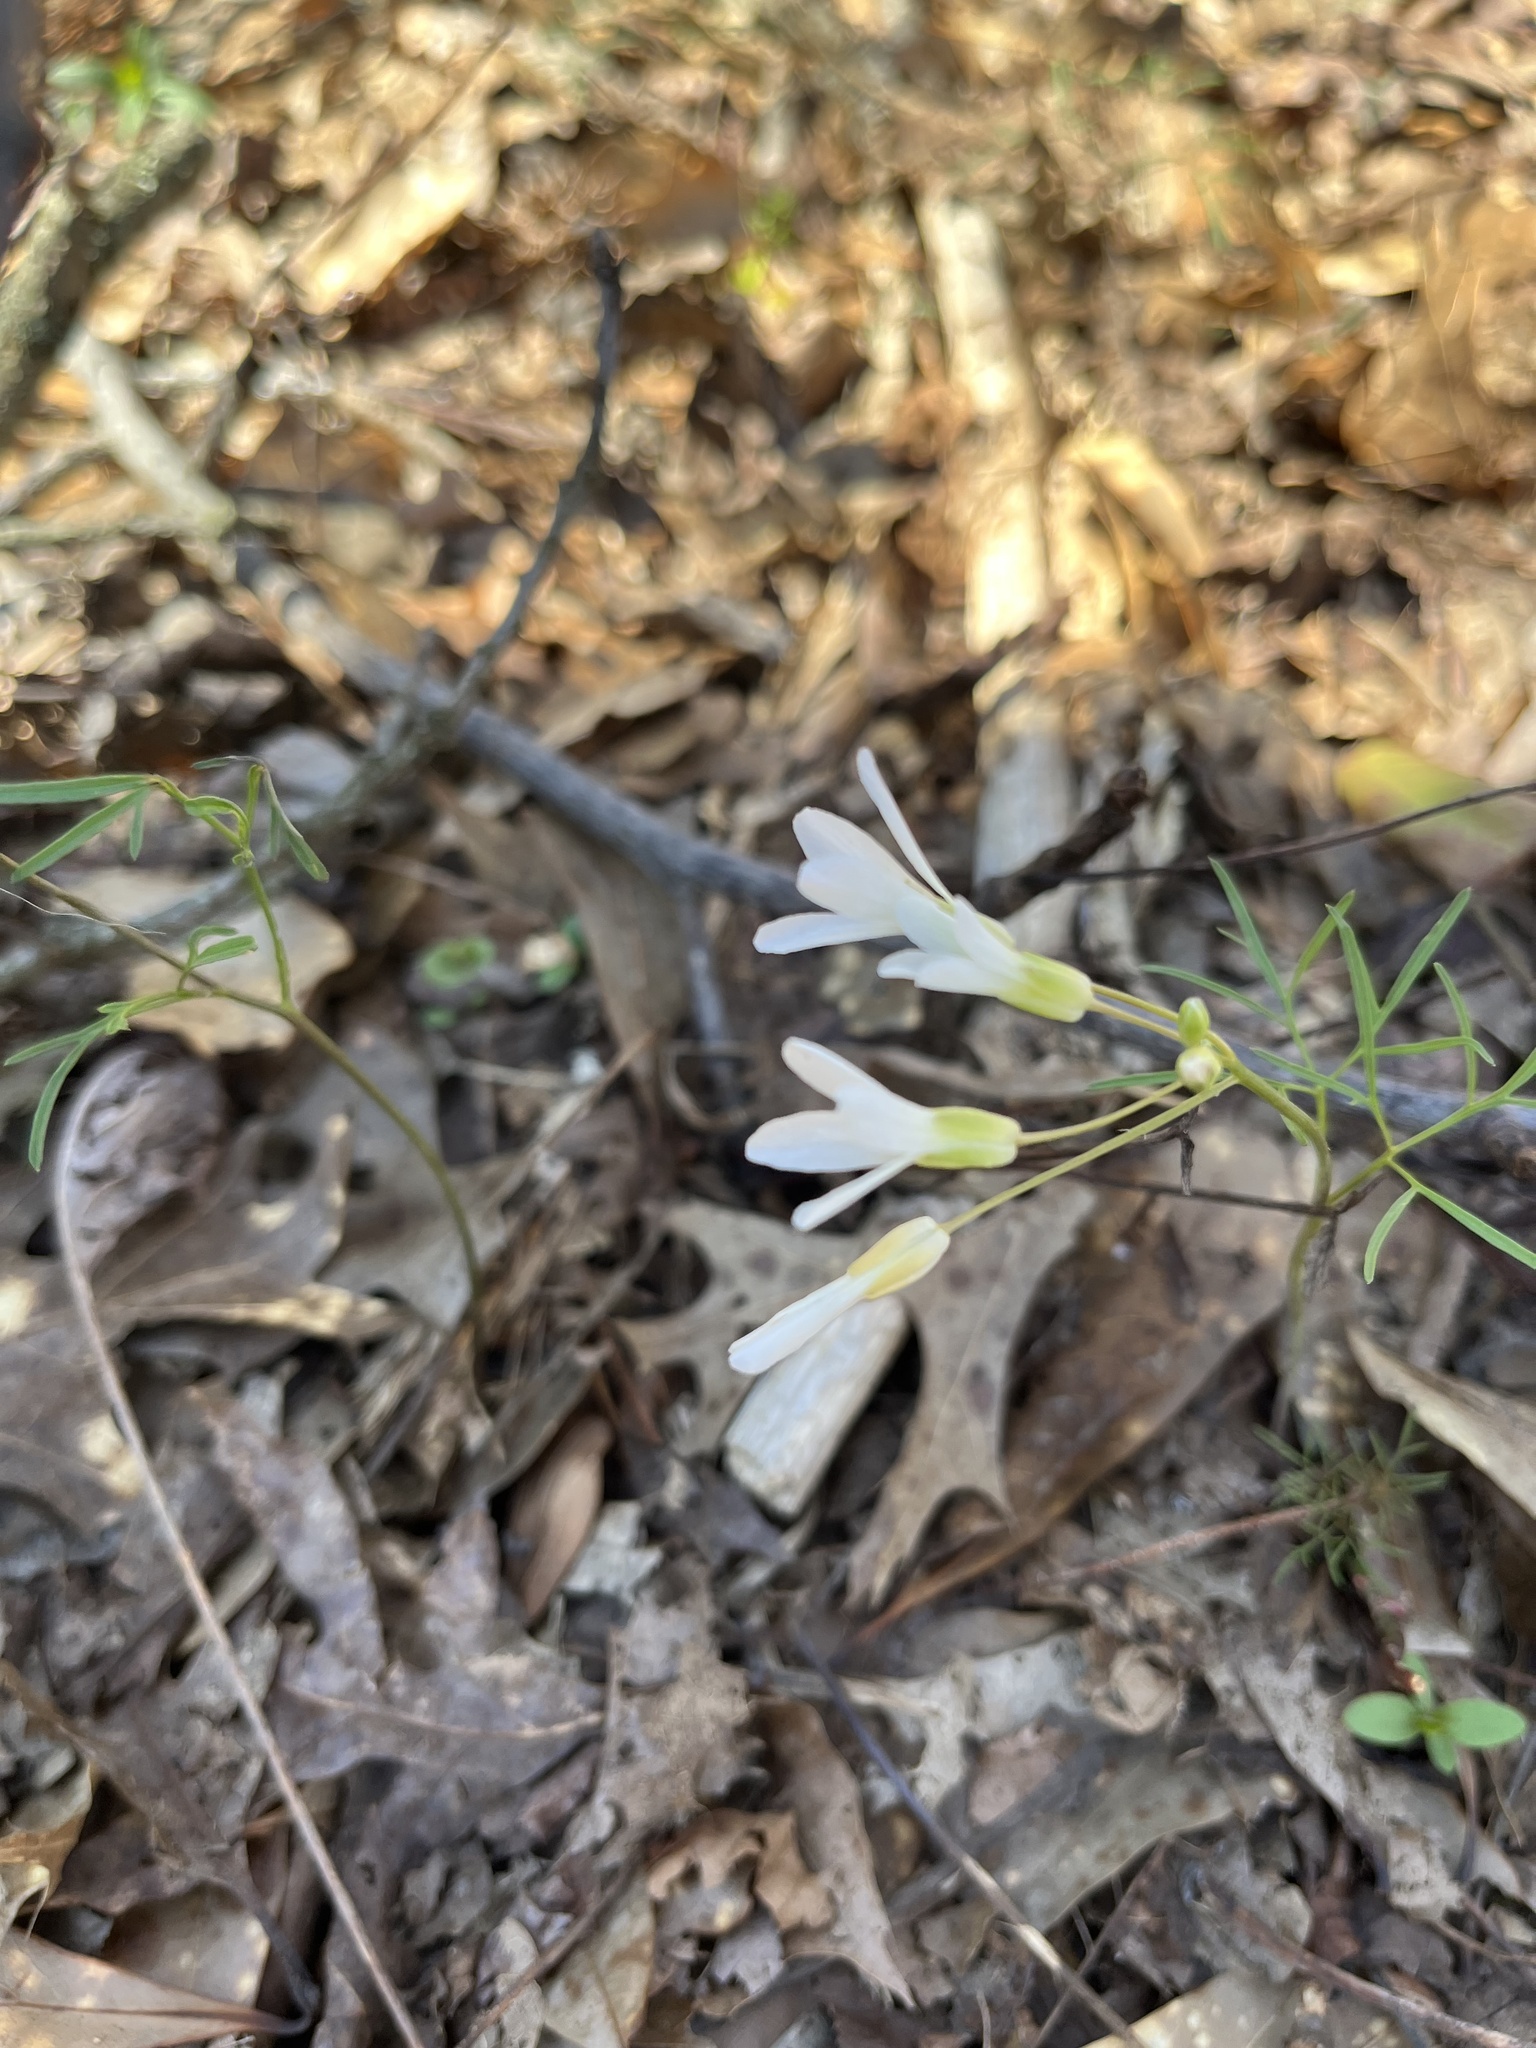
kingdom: Plantae
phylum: Tracheophyta
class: Magnoliopsida
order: Brassicales
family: Brassicaceae
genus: Cardamine
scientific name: Cardamine dissecta
